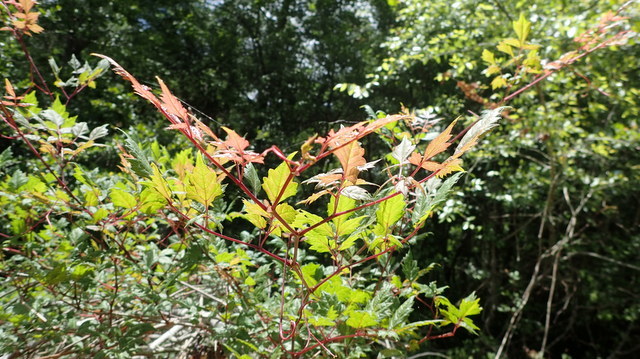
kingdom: Plantae
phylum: Tracheophyta
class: Magnoliopsida
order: Vitales
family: Vitaceae
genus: Nekemias
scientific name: Nekemias arborea
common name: Peppervine
